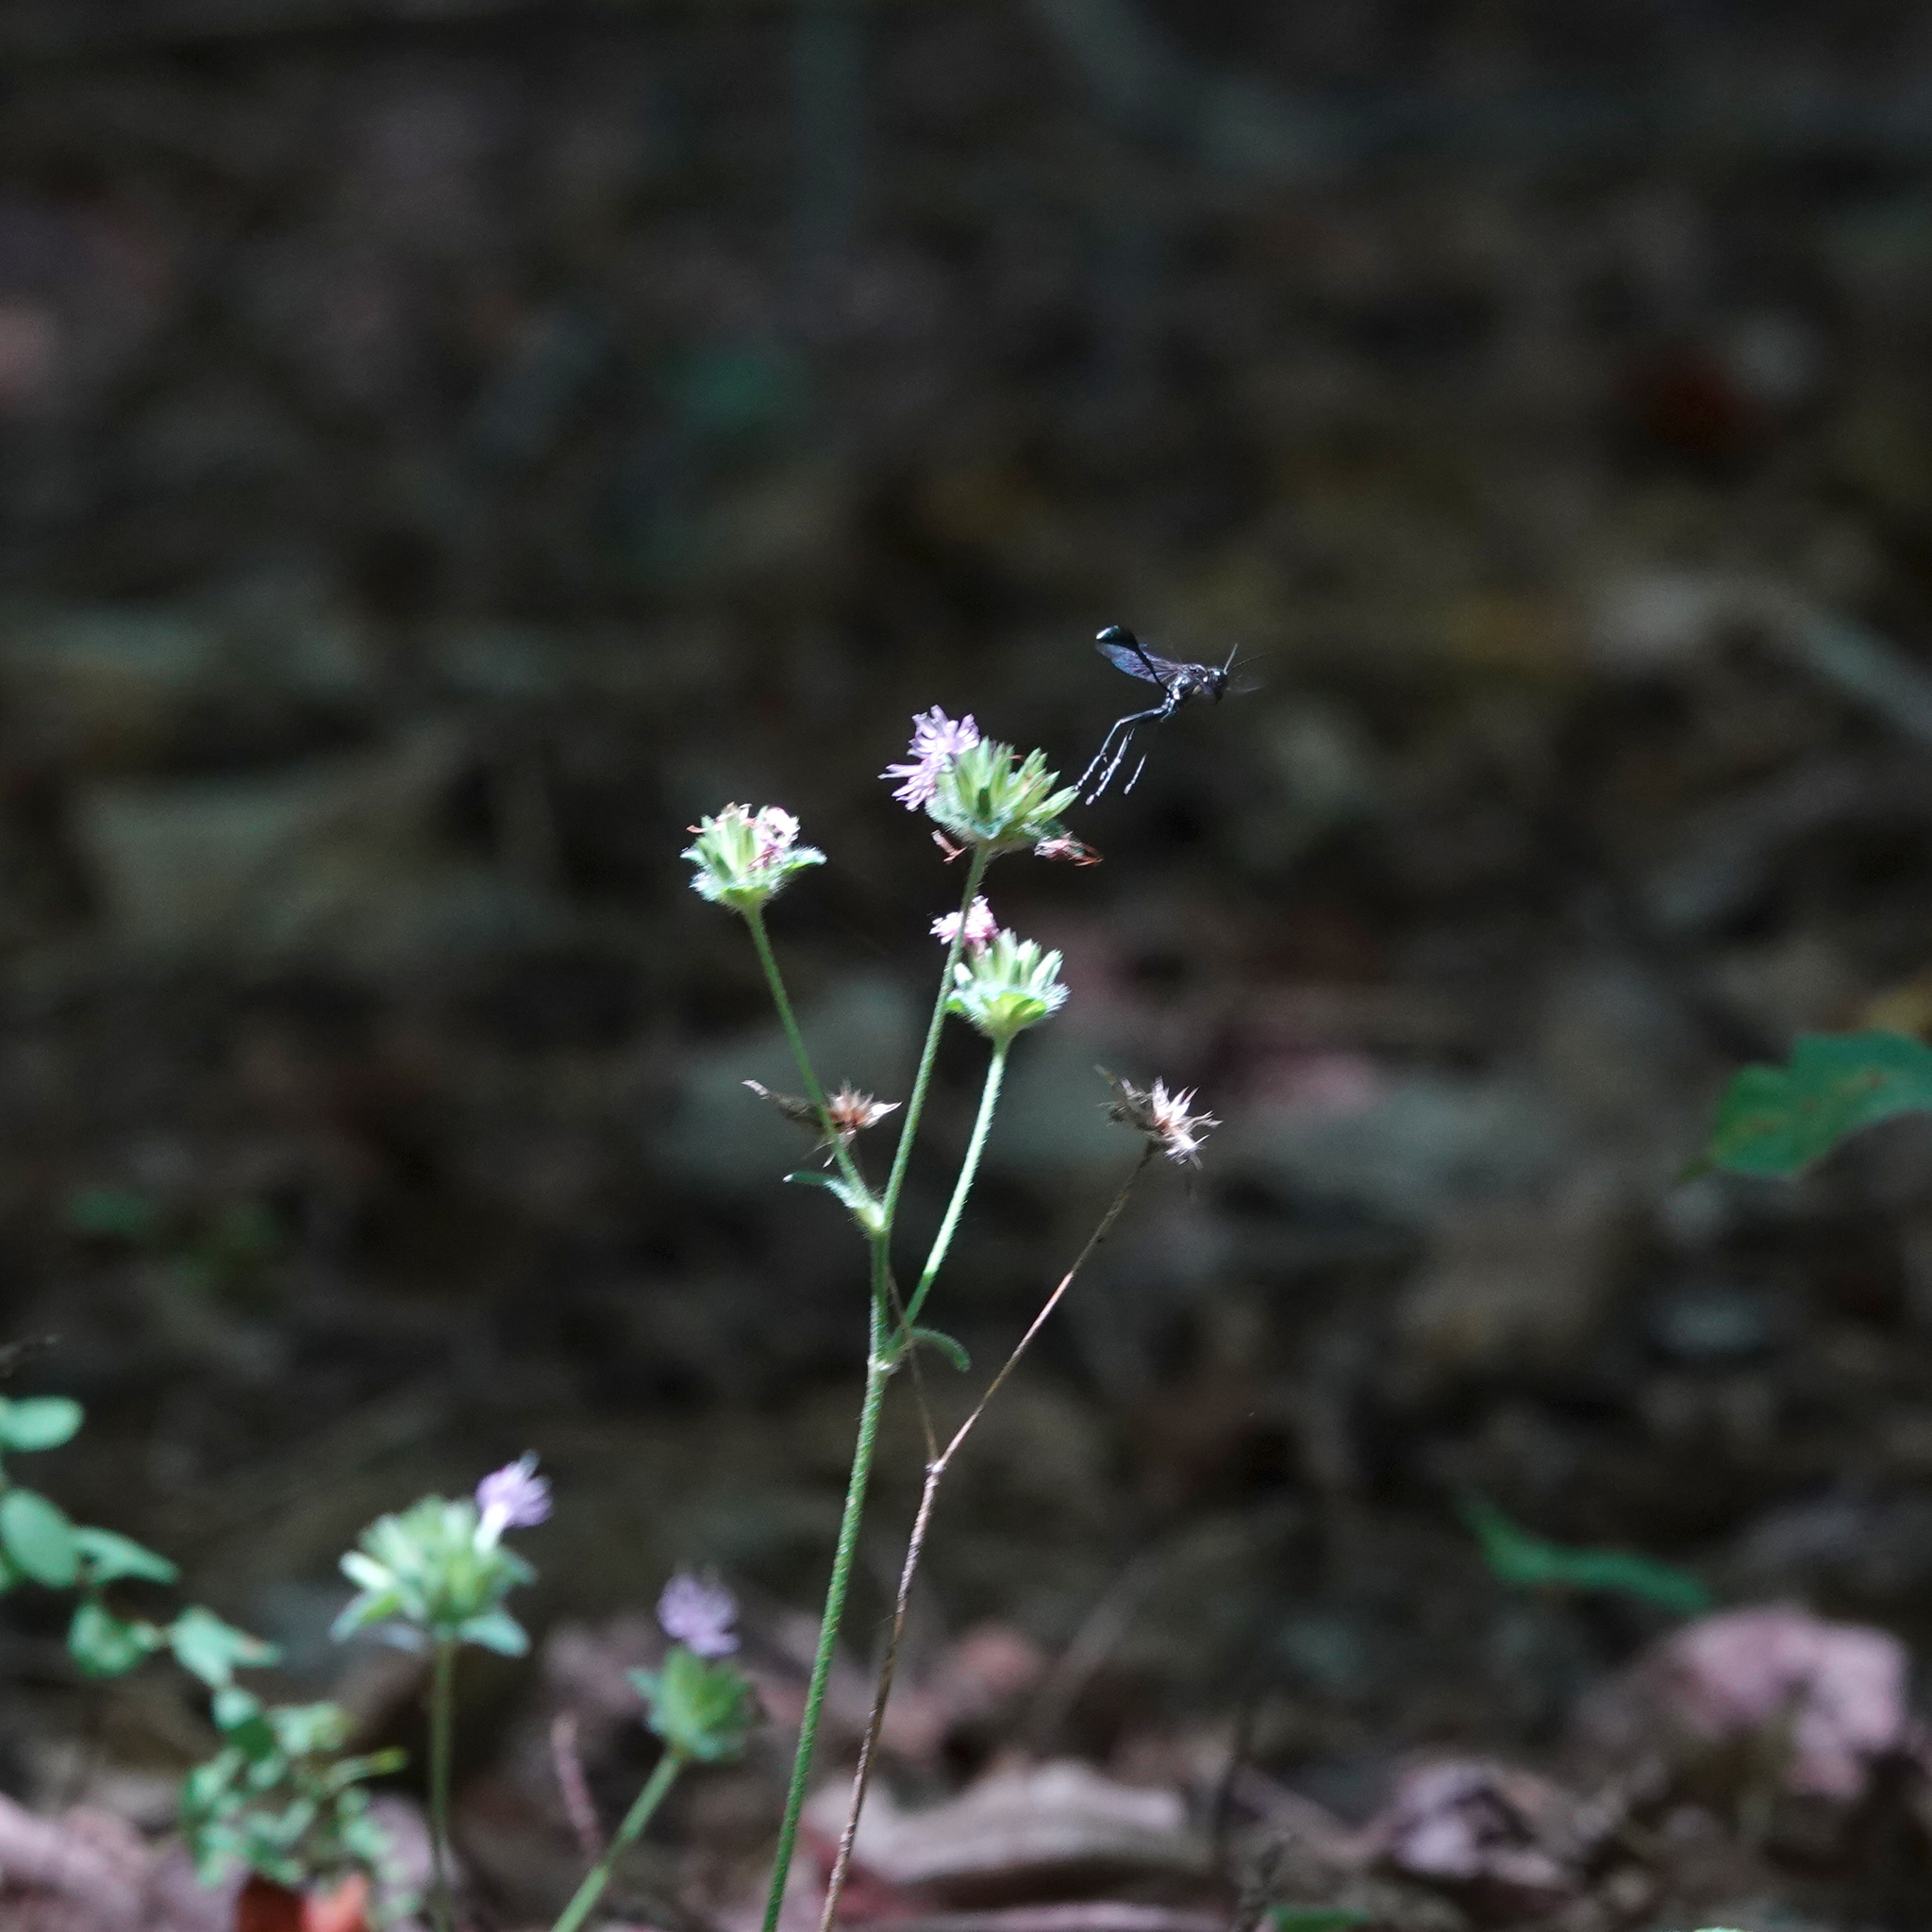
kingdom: Animalia
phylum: Arthropoda
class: Insecta
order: Hymenoptera
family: Sphecidae
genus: Eremnophila
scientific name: Eremnophila aureonotata
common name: Gold-marked thread-waisted wasp
